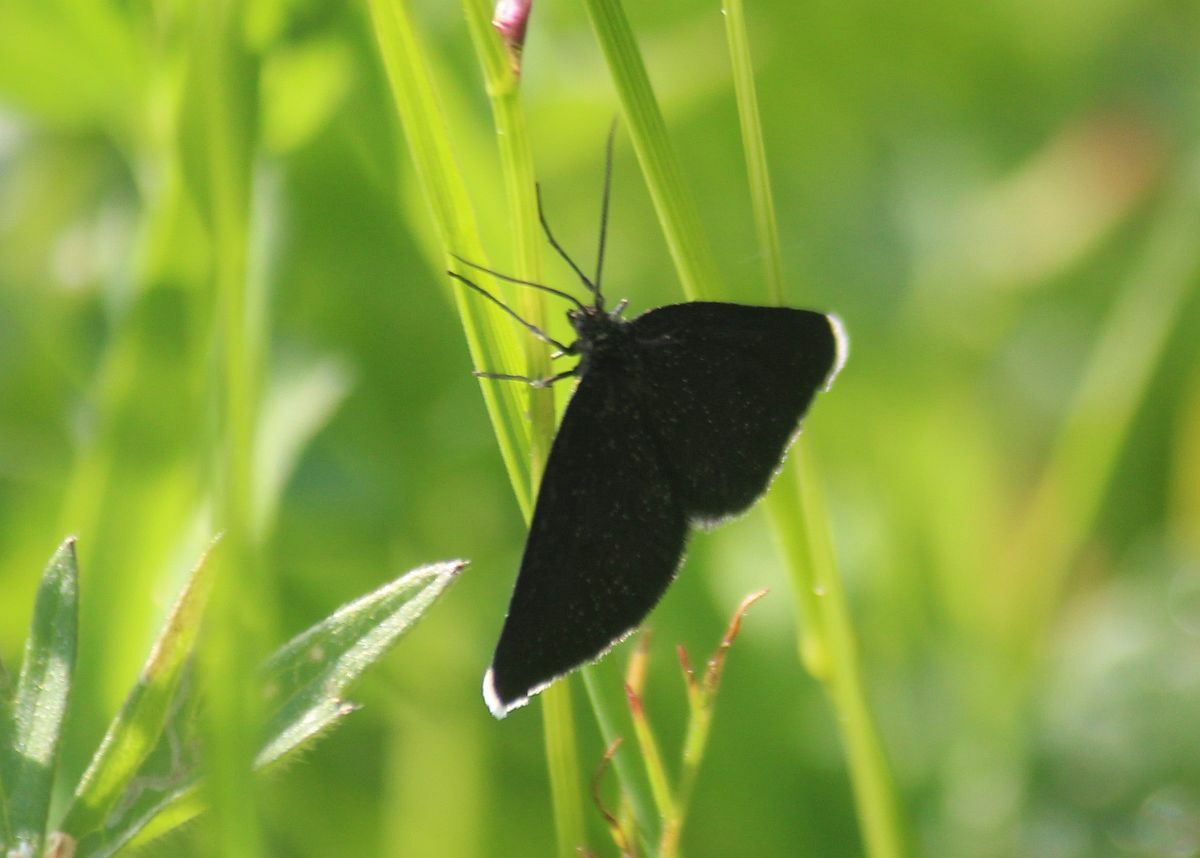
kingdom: Animalia
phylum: Arthropoda
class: Insecta
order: Lepidoptera
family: Geometridae
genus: Odezia
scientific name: Odezia atrata
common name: Chimney sweeper
